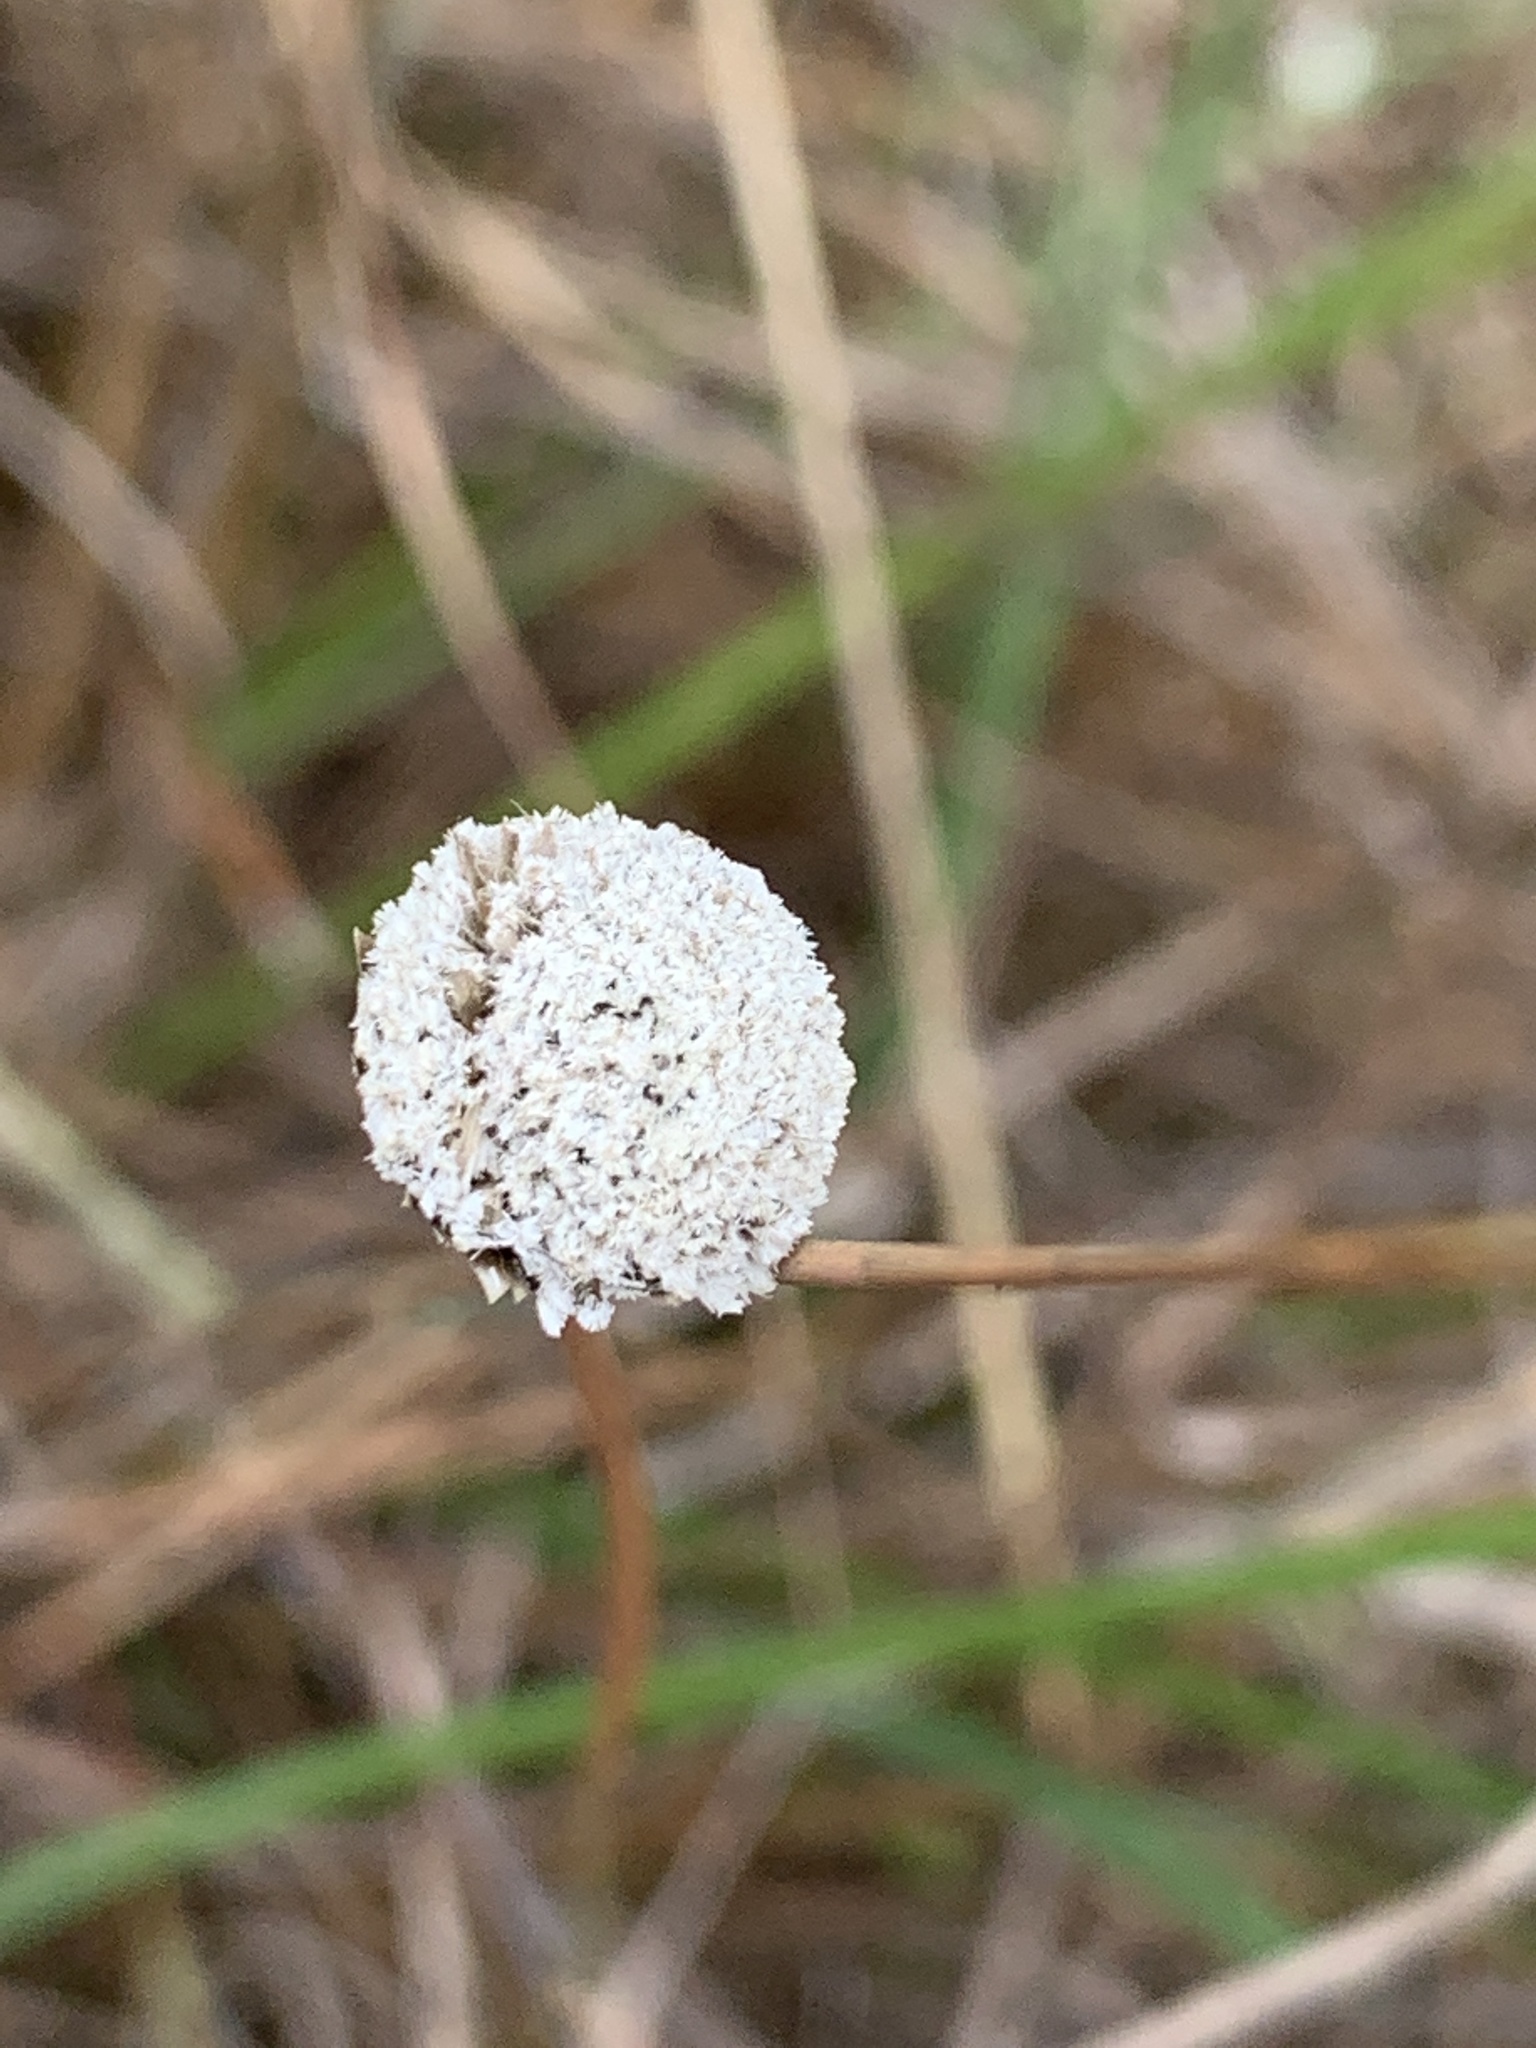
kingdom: Plantae
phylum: Tracheophyta
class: Liliopsida
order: Poales
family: Eriocaulaceae
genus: Eriocaulon
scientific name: Eriocaulon compressum
